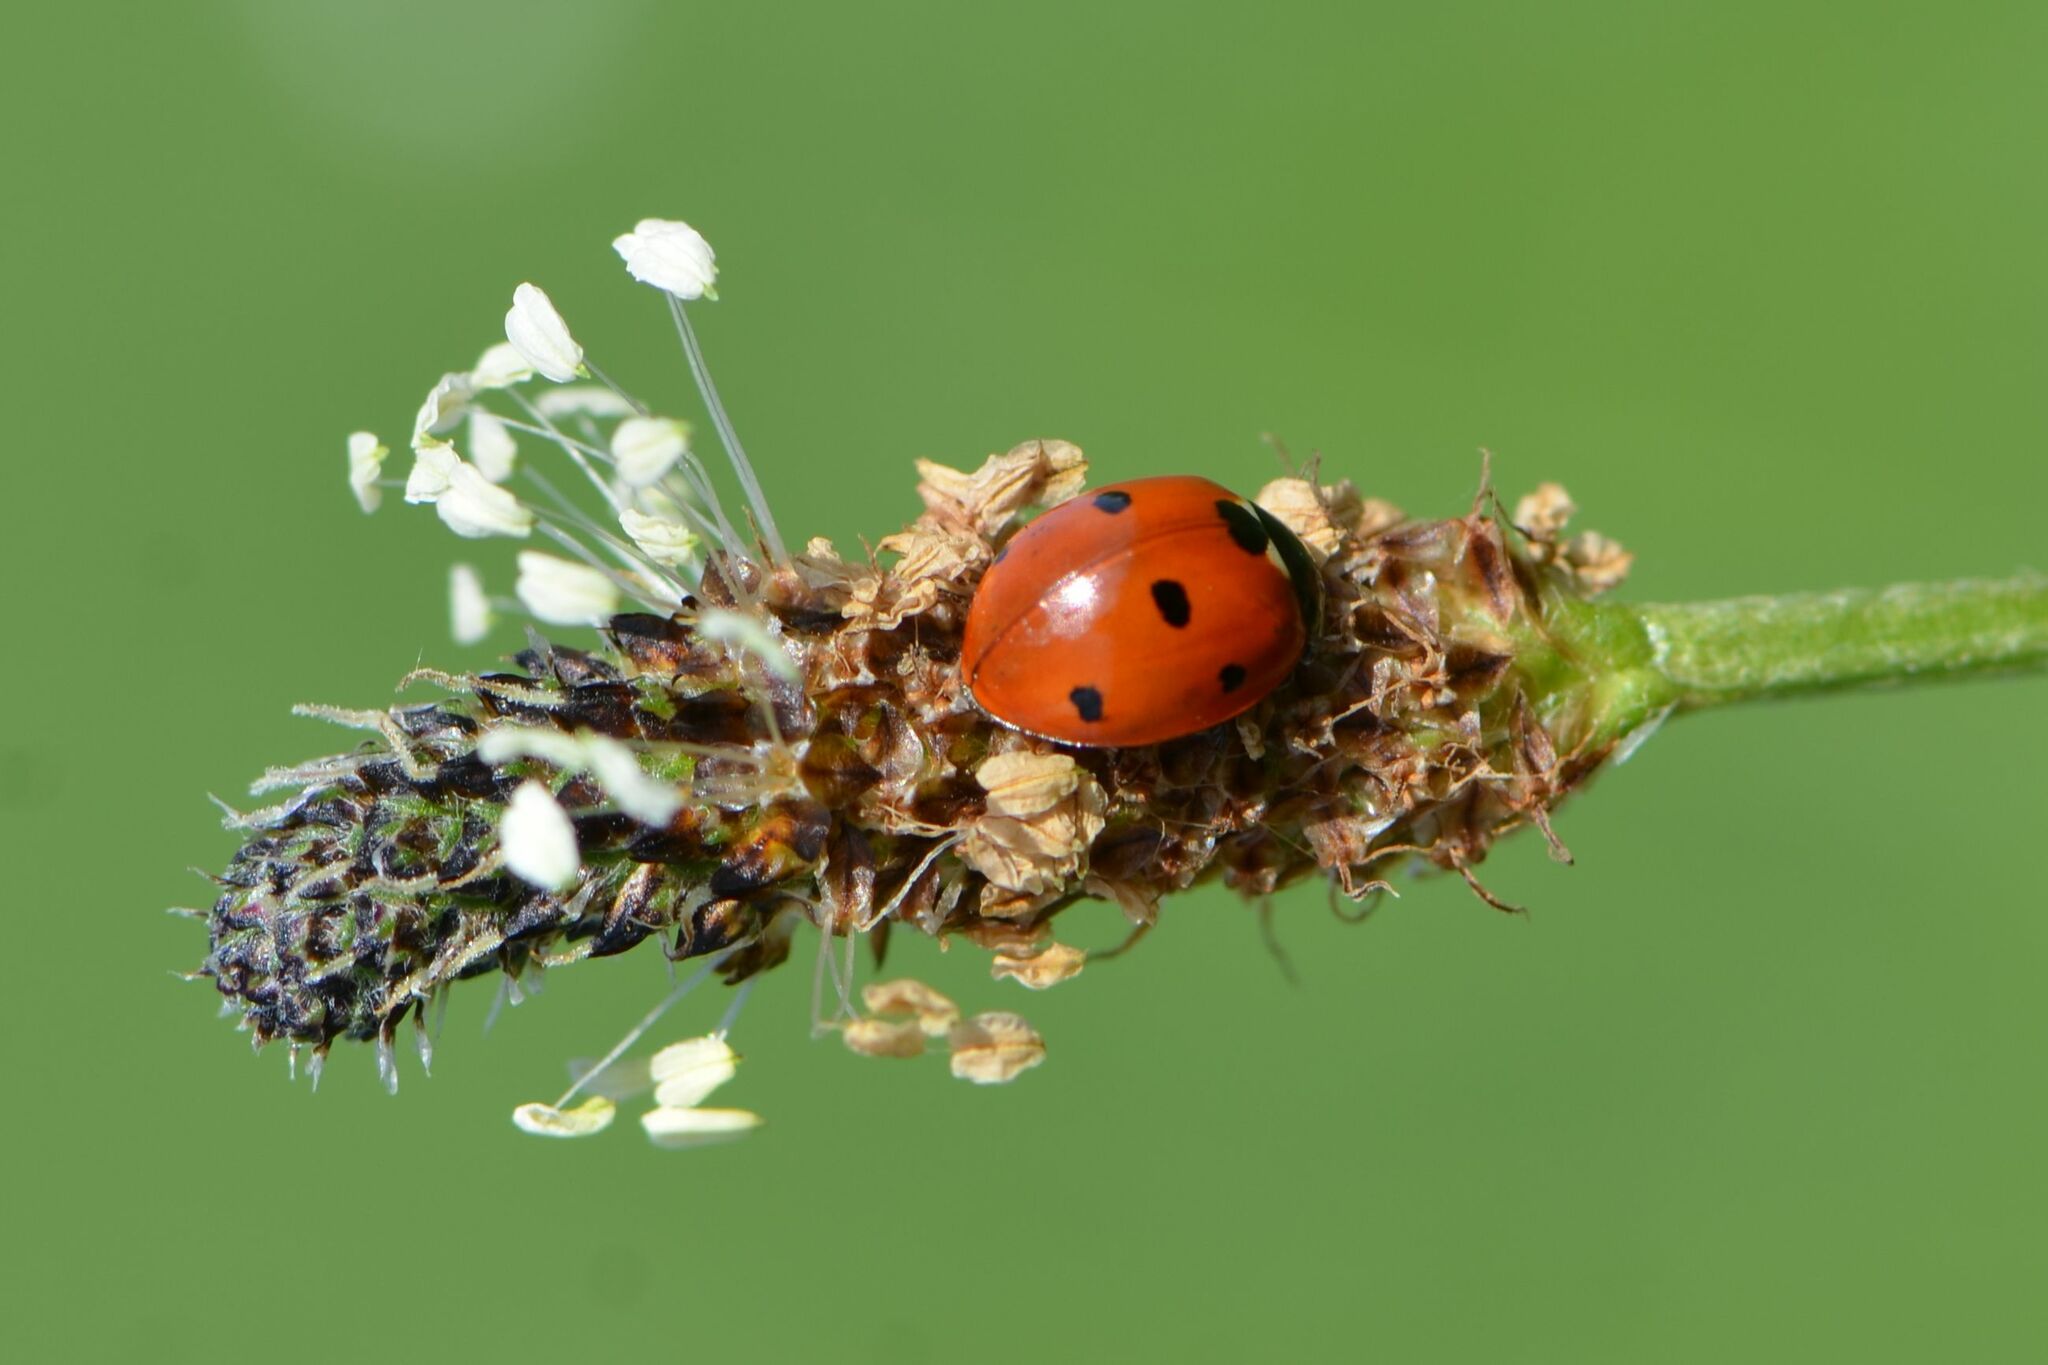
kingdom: Animalia
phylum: Arthropoda
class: Insecta
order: Coleoptera
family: Coccinellidae
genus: Coccinella
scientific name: Coccinella septempunctata
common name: Sevenspotted lady beetle
